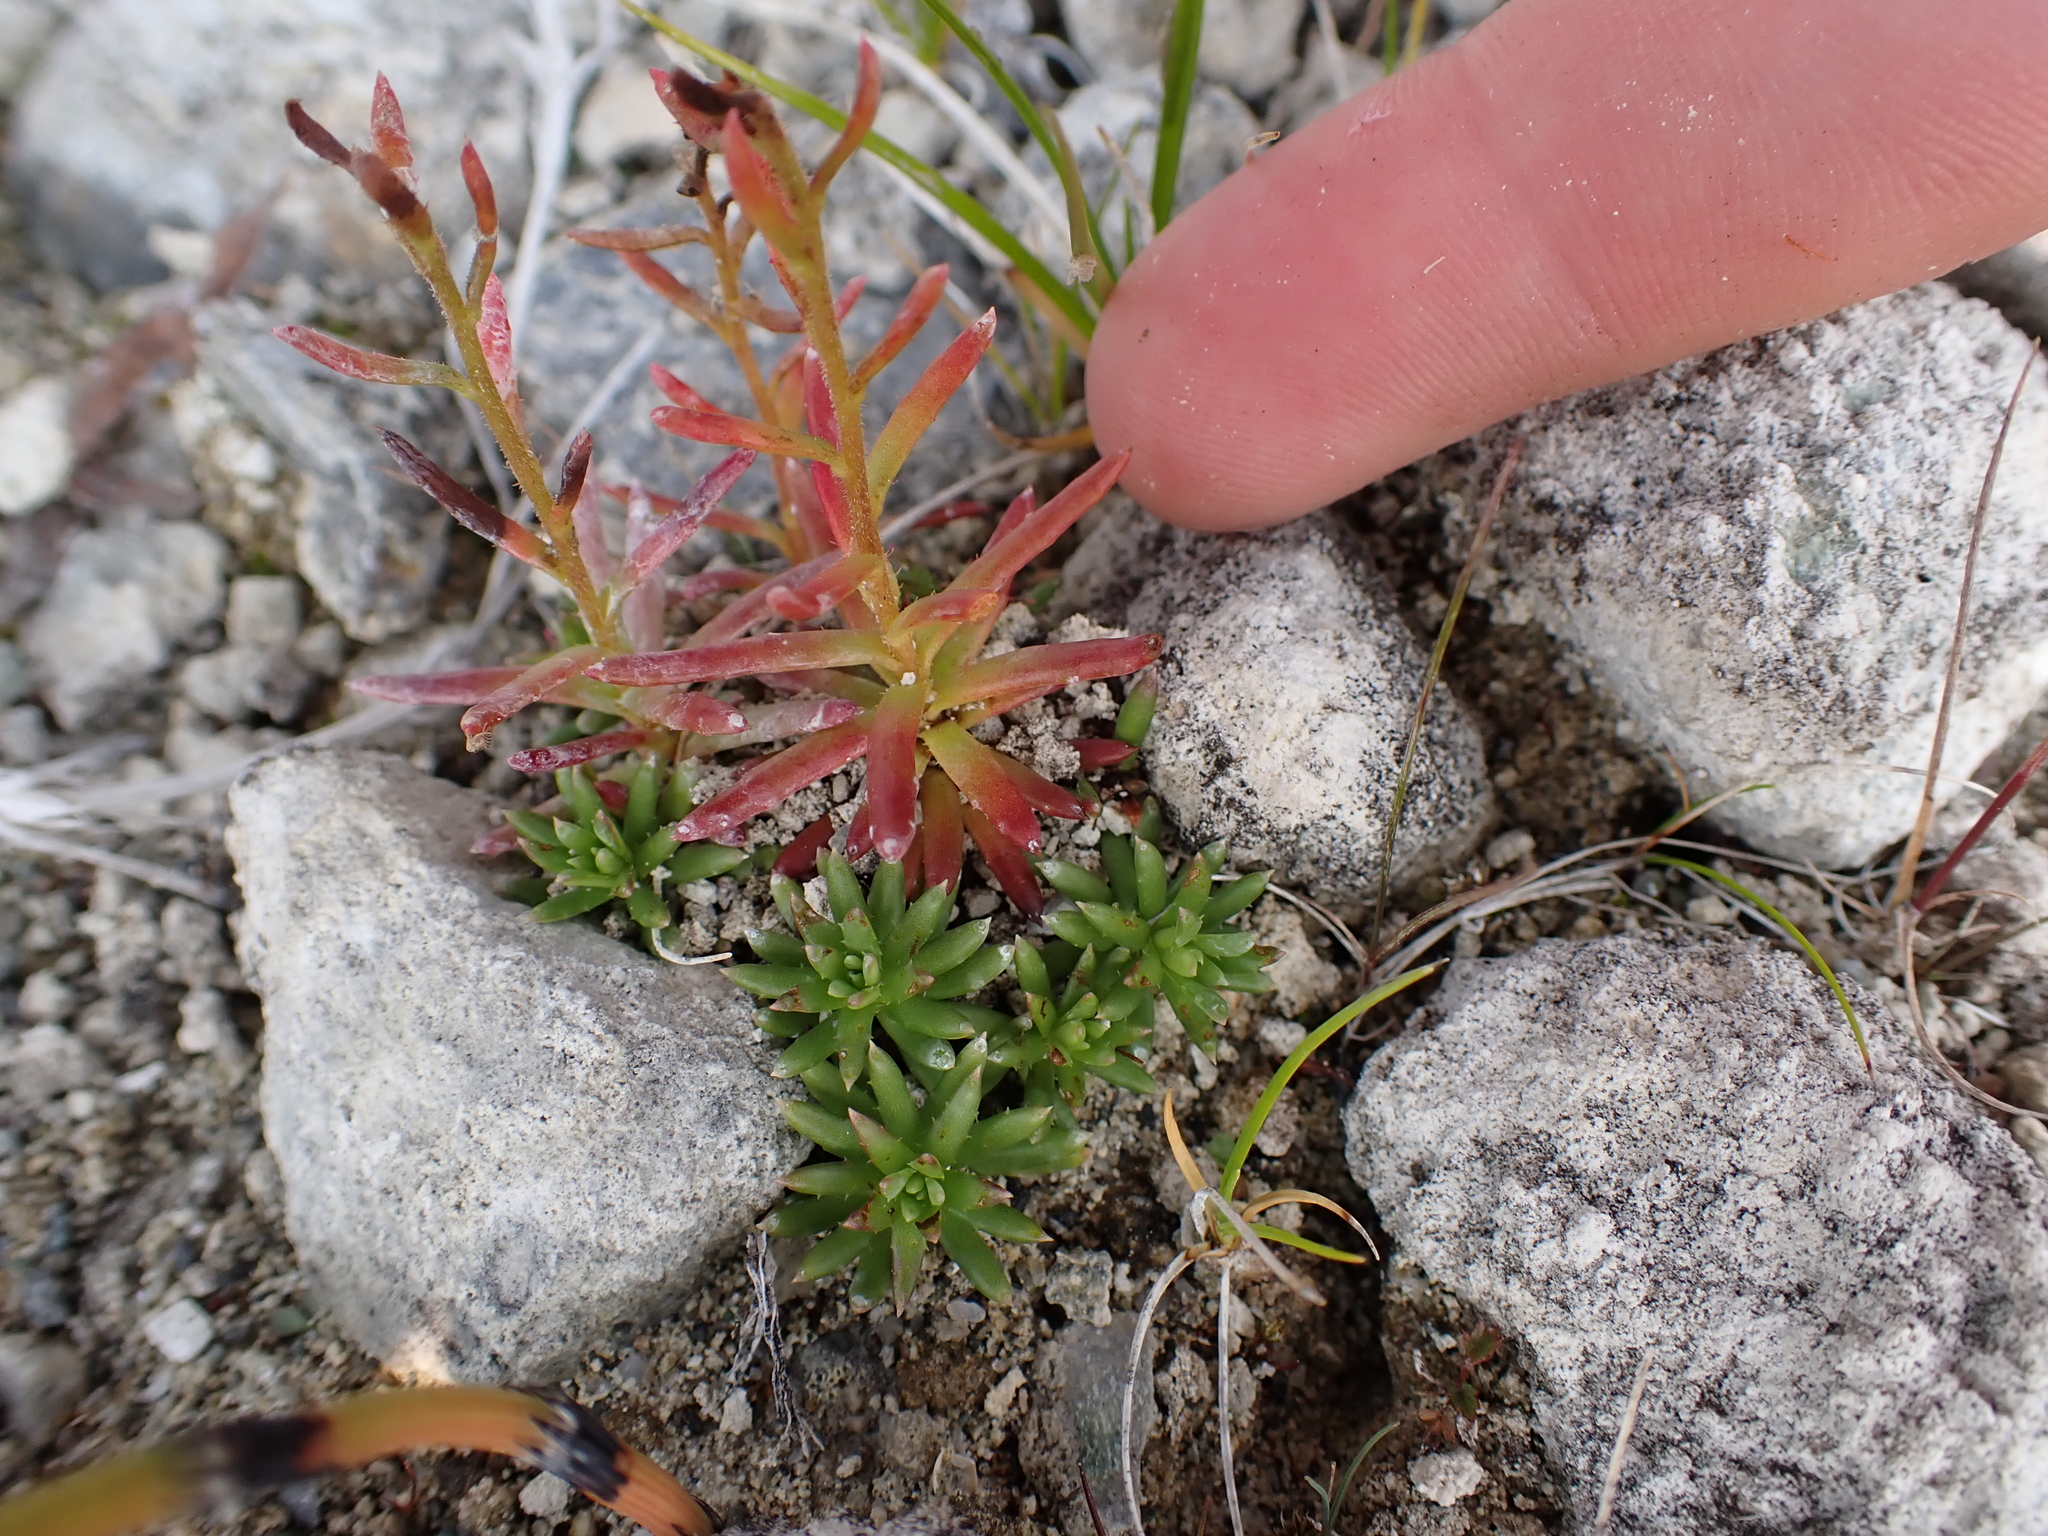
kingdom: Plantae
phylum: Tracheophyta
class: Magnoliopsida
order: Saxifragales
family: Saxifragaceae
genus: Saxifraga
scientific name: Saxifraga aizoides
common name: Yellow mountain saxifrage
